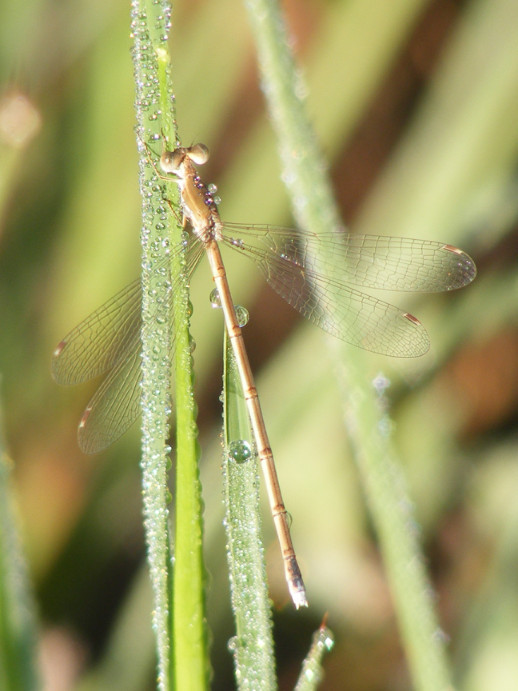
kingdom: Animalia
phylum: Arthropoda
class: Insecta
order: Odonata
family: Lestidae
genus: Lestes
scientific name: Lestes pallidus
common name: Pallid spreadwing
